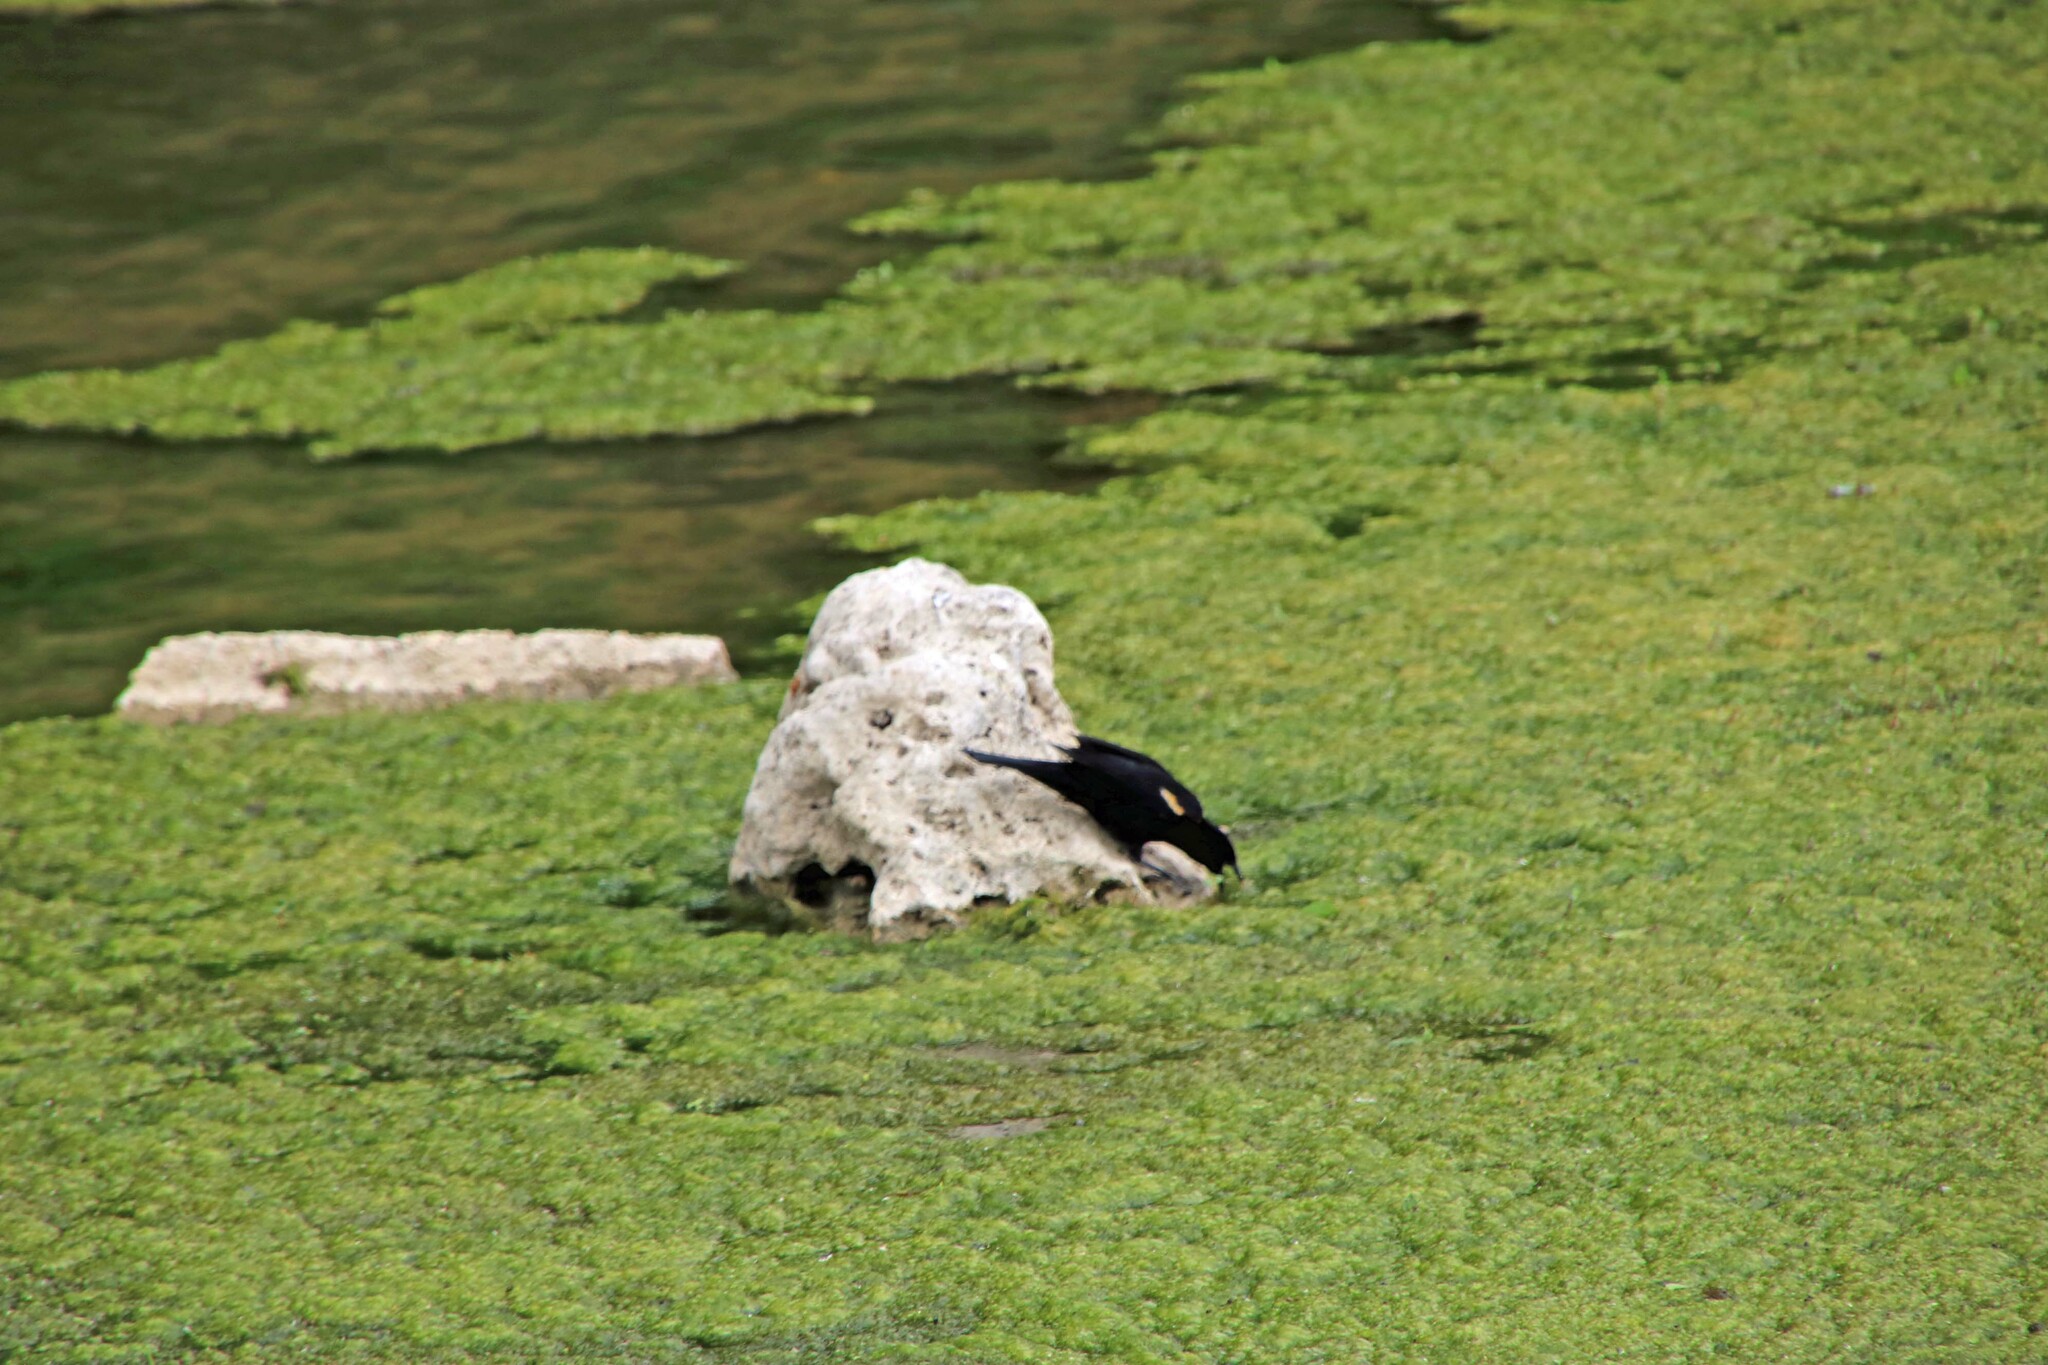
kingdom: Animalia
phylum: Chordata
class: Aves
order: Passeriformes
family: Icteridae
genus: Agelaius
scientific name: Agelaius phoeniceus
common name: Red-winged blackbird
